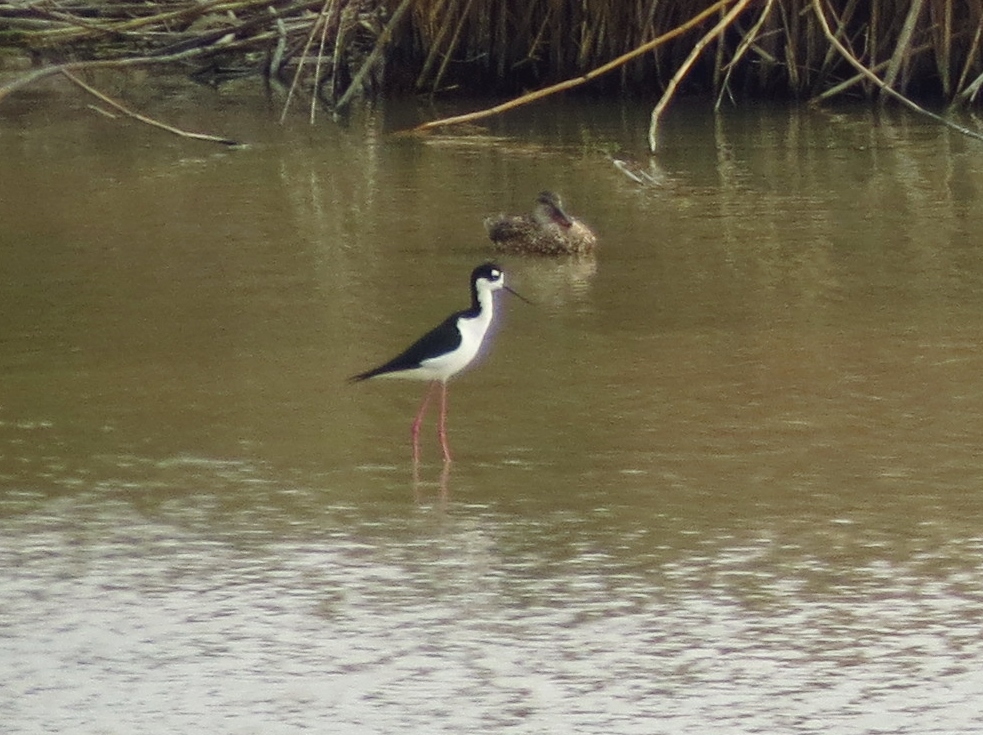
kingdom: Animalia
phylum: Chordata
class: Aves
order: Charadriiformes
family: Recurvirostridae
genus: Himantopus
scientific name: Himantopus mexicanus
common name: Black-necked stilt
